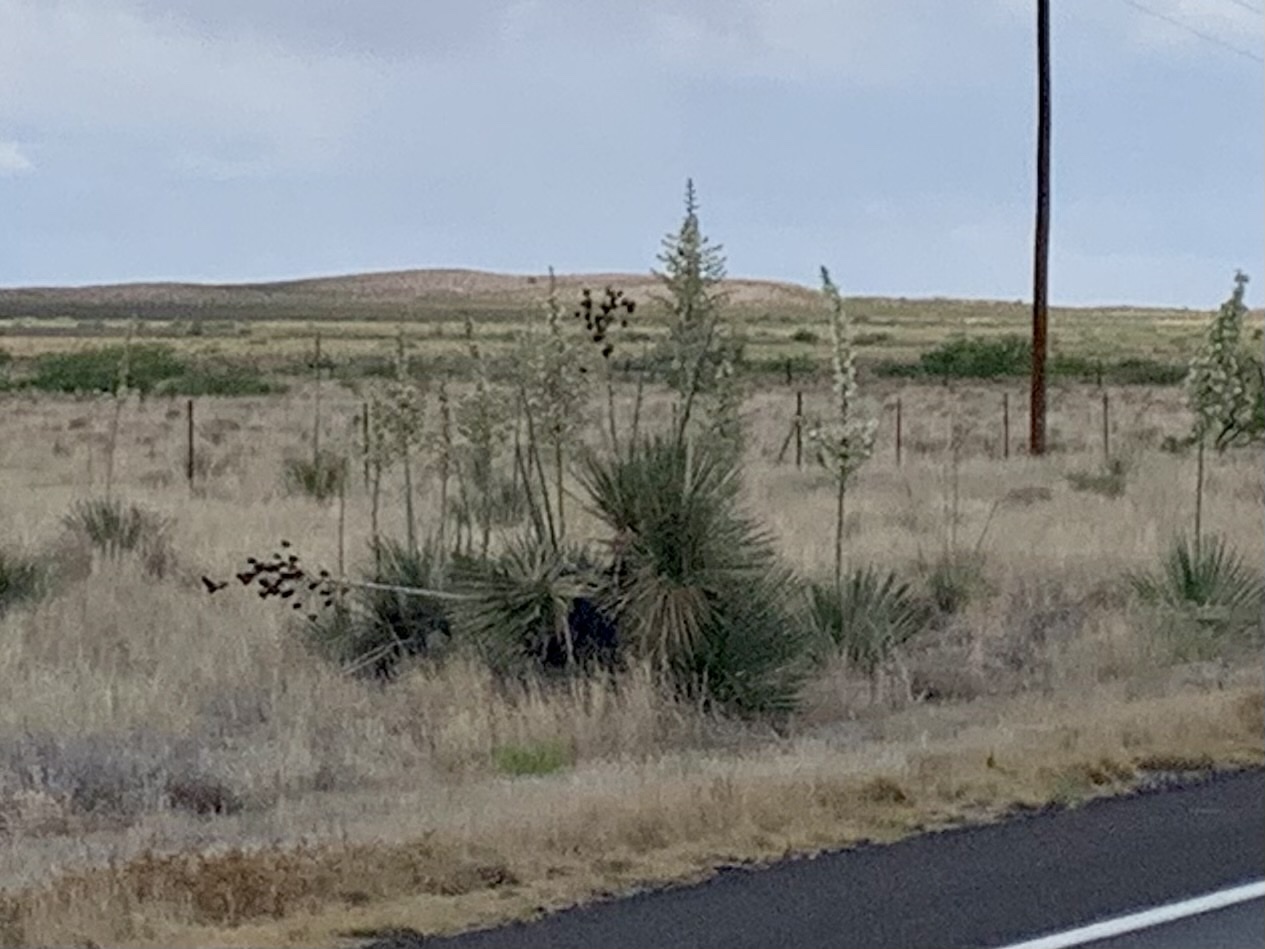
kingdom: Plantae
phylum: Tracheophyta
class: Liliopsida
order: Asparagales
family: Asparagaceae
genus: Yucca
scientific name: Yucca elata
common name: Palmella
